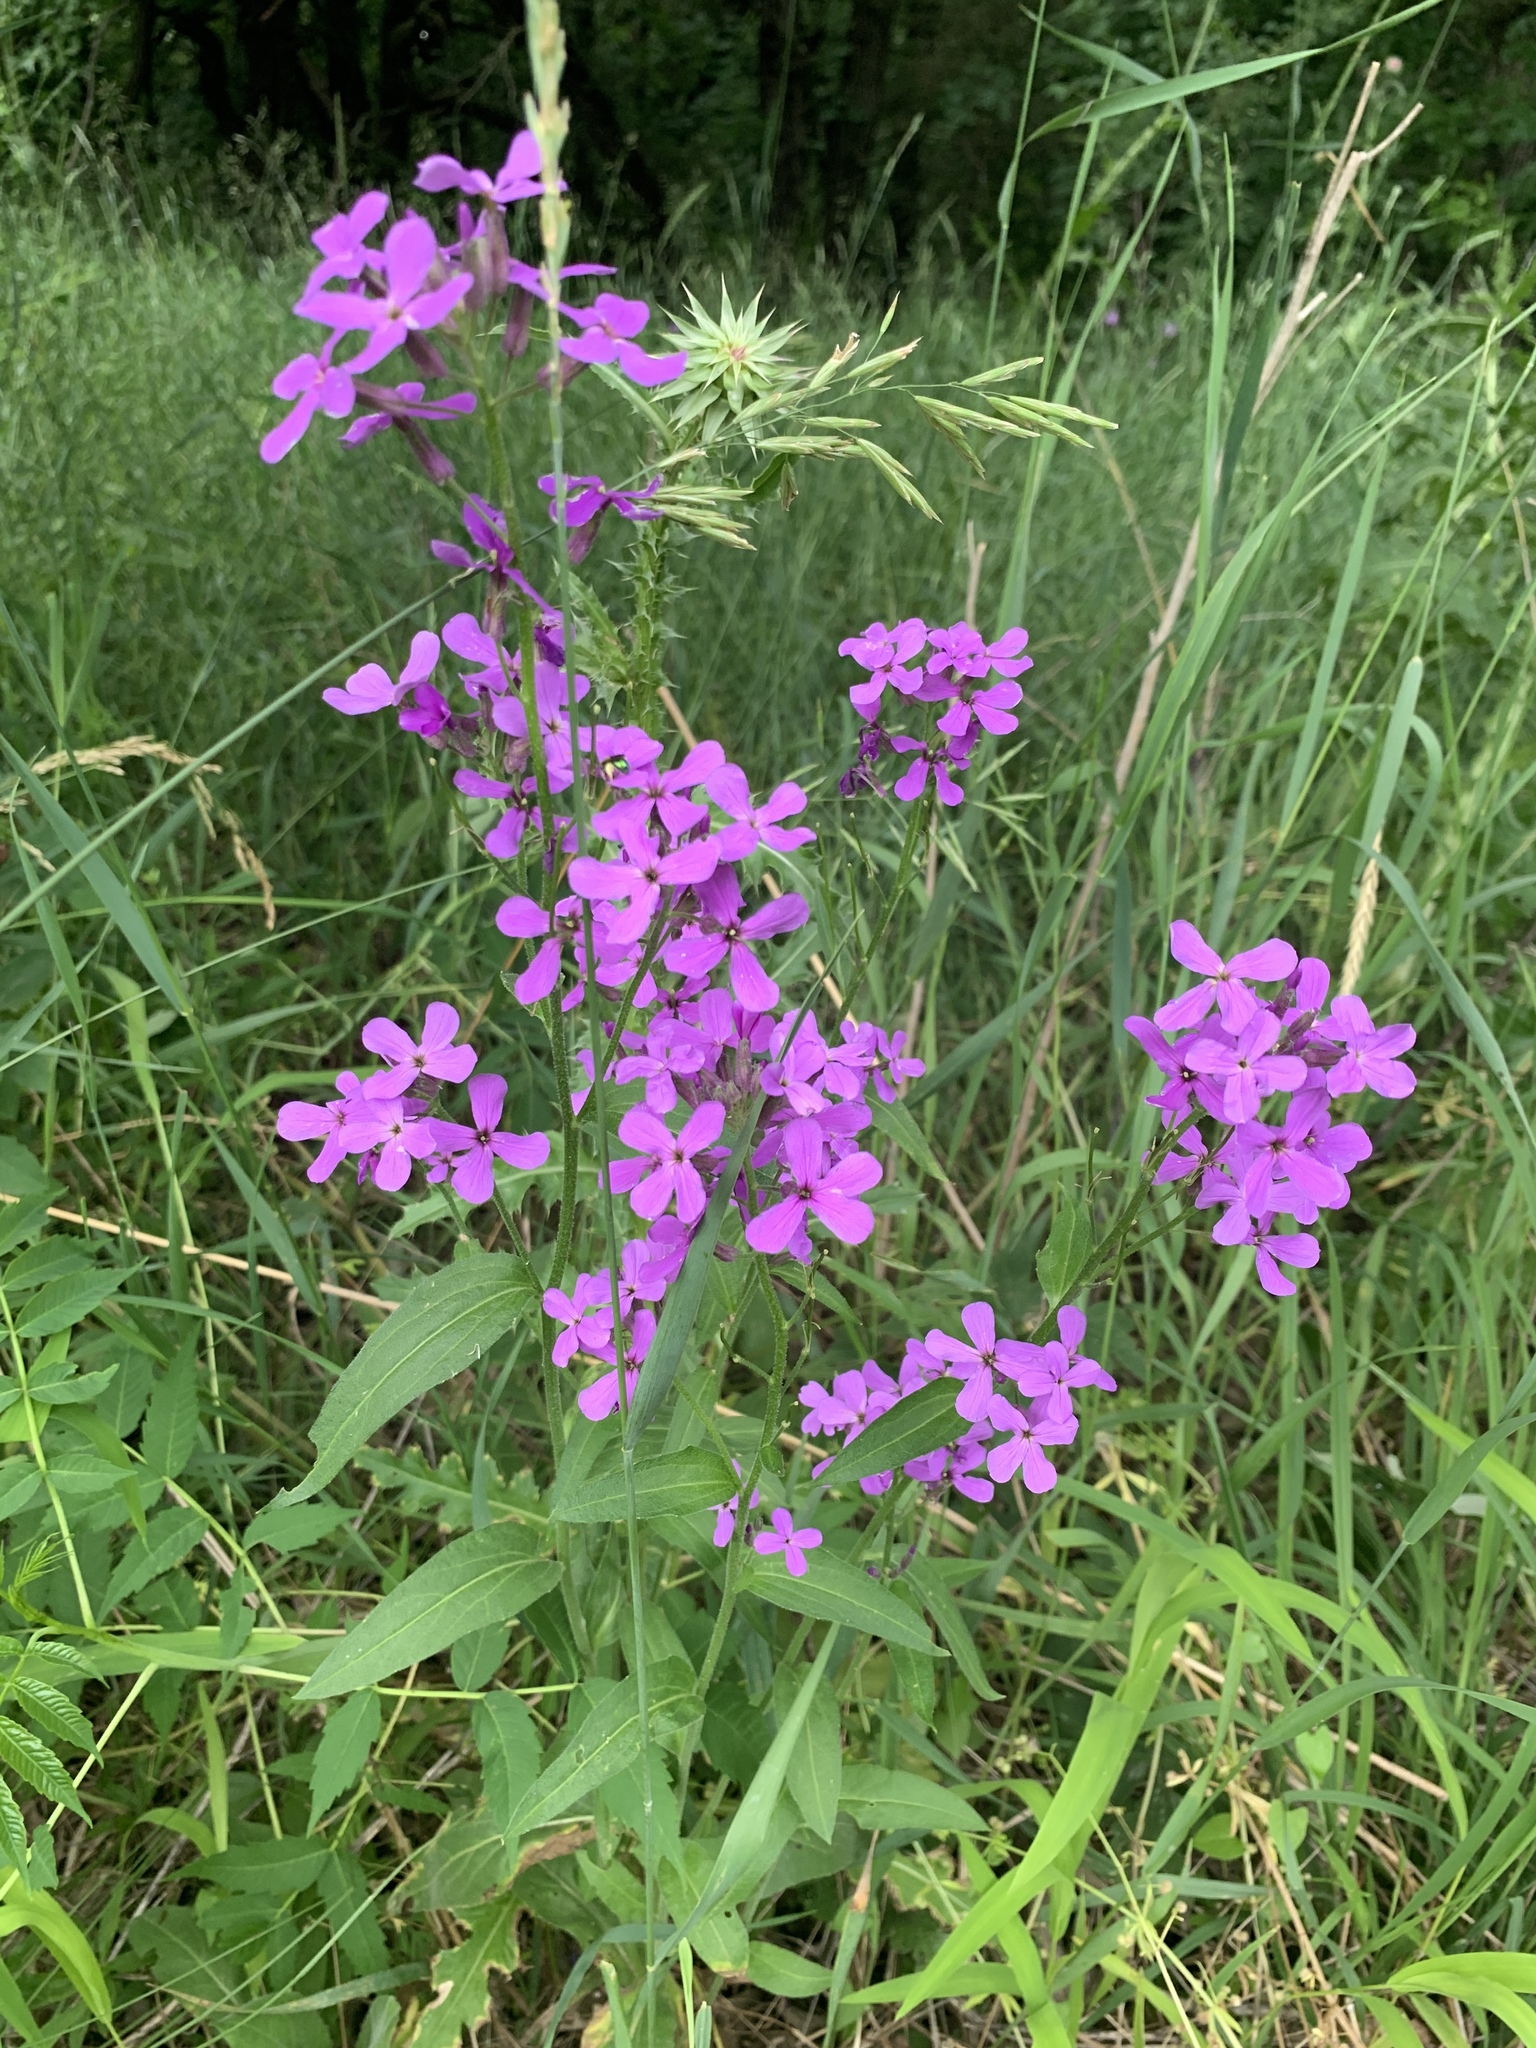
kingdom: Plantae
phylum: Tracheophyta
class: Magnoliopsida
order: Brassicales
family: Brassicaceae
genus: Hesperis
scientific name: Hesperis matronalis
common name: Dame's-violet
